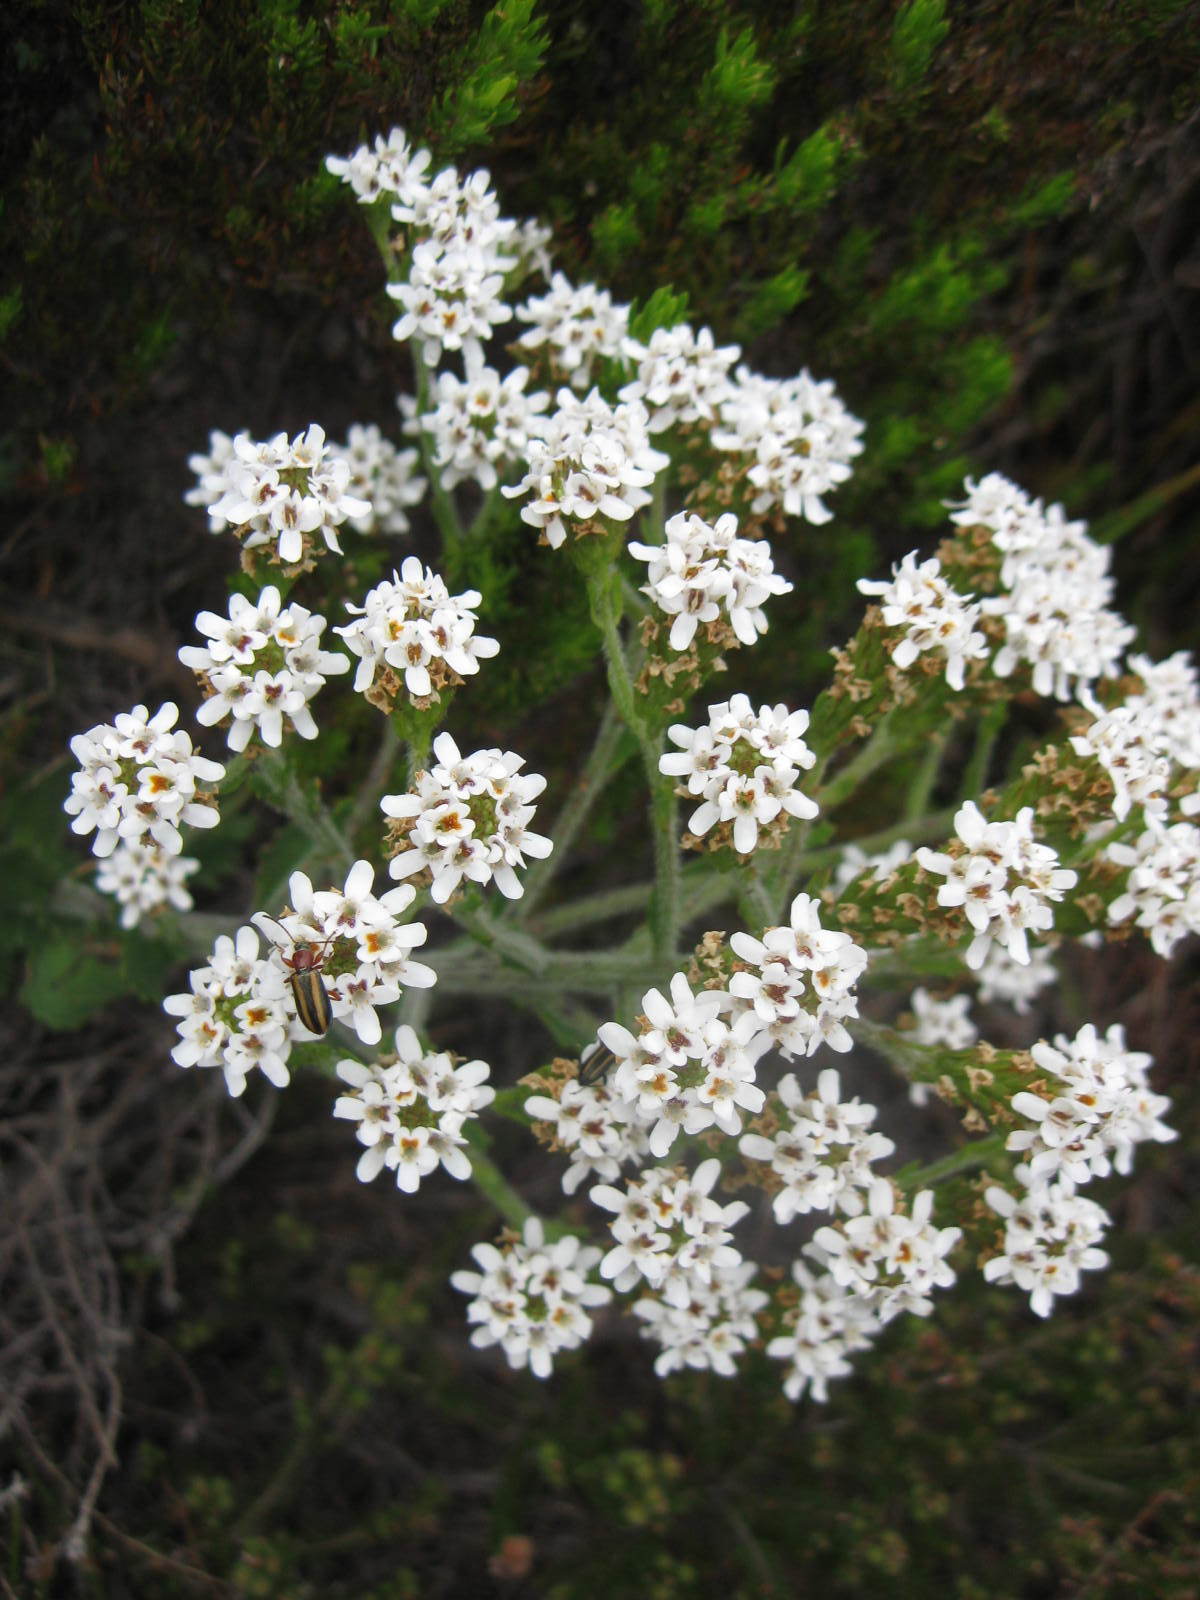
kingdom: Plantae
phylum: Tracheophyta
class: Magnoliopsida
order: Lamiales
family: Scrophulariaceae
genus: Pseudoselago
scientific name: Pseudoselago peninsulae
